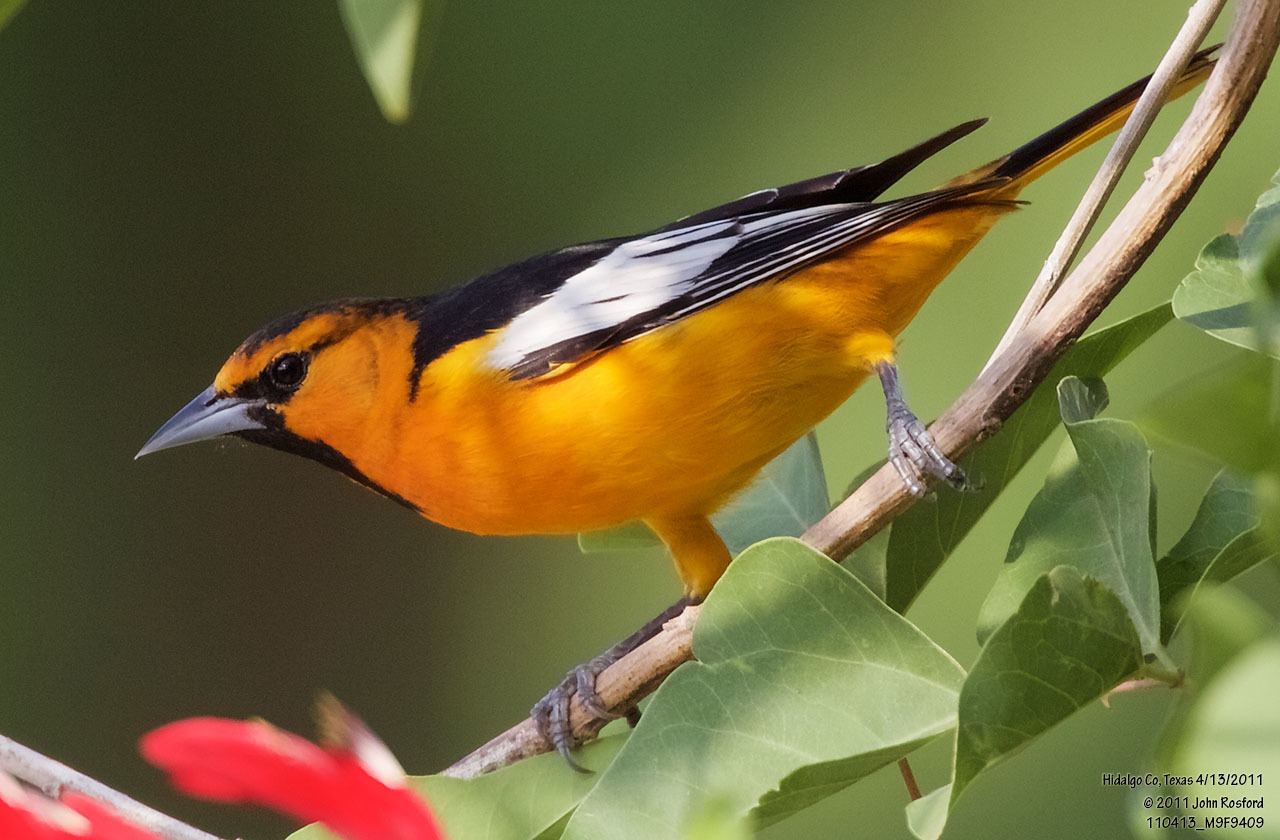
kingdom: Animalia
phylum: Chordata
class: Aves
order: Passeriformes
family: Icteridae
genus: Icterus
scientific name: Icterus bullockii
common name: Bullock's oriole
